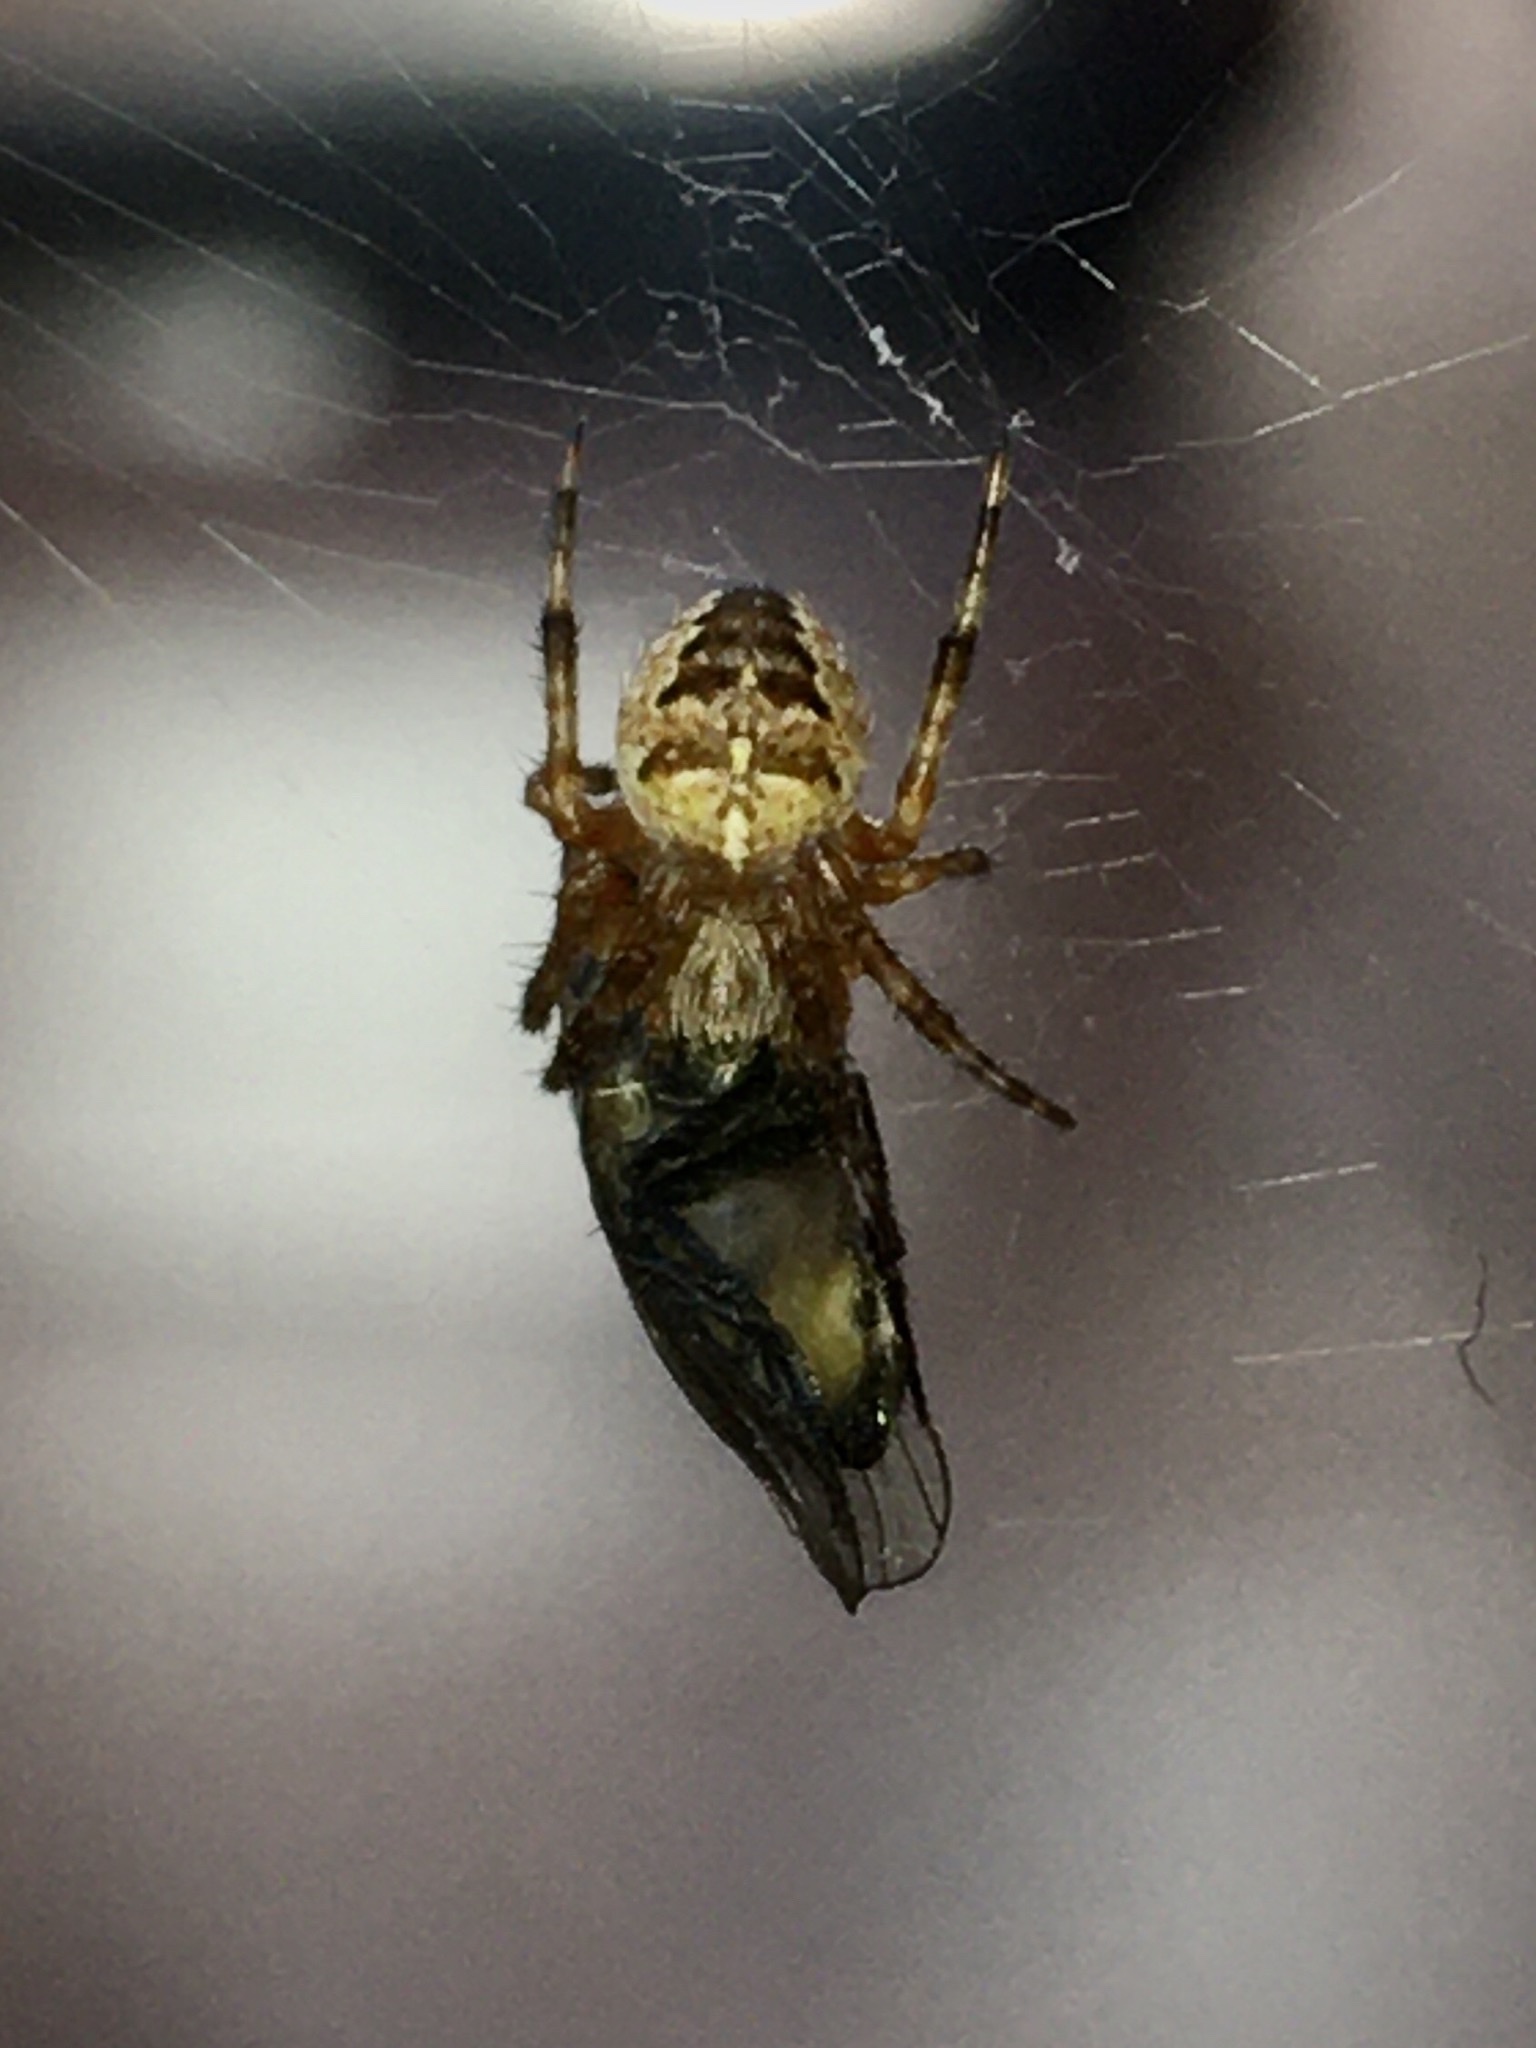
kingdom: Animalia
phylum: Arthropoda
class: Arachnida
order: Araneae
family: Araneidae
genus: Araneus
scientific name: Araneus diadematus
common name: Cross orbweaver
